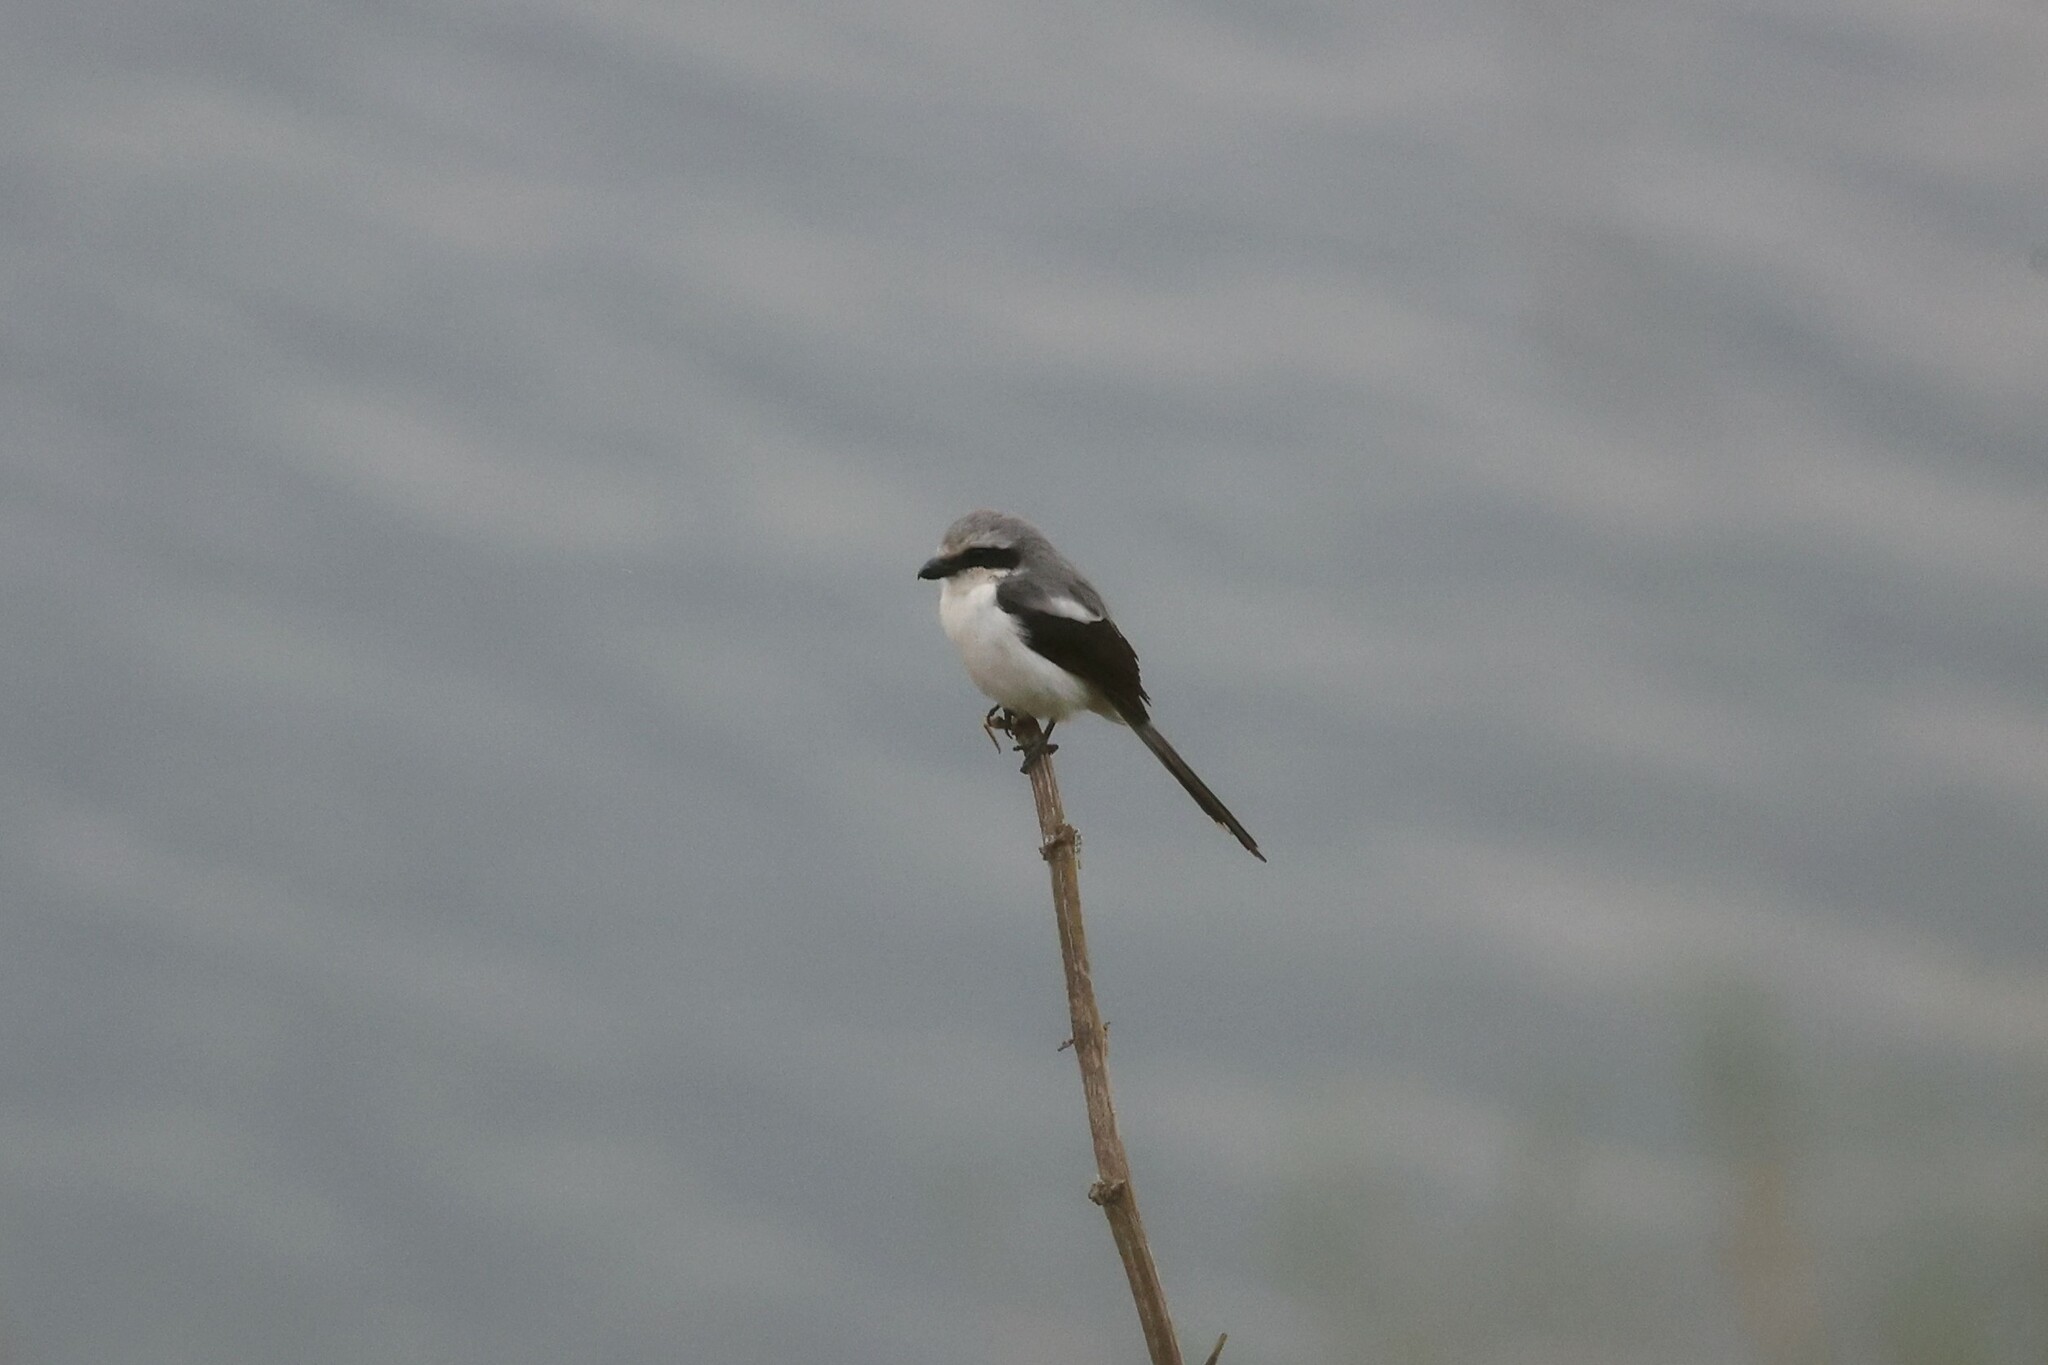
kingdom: Animalia
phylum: Chordata
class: Aves
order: Passeriformes
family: Laniidae
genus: Lanius
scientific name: Lanius mackinnoni
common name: Mackinnon's shrike
